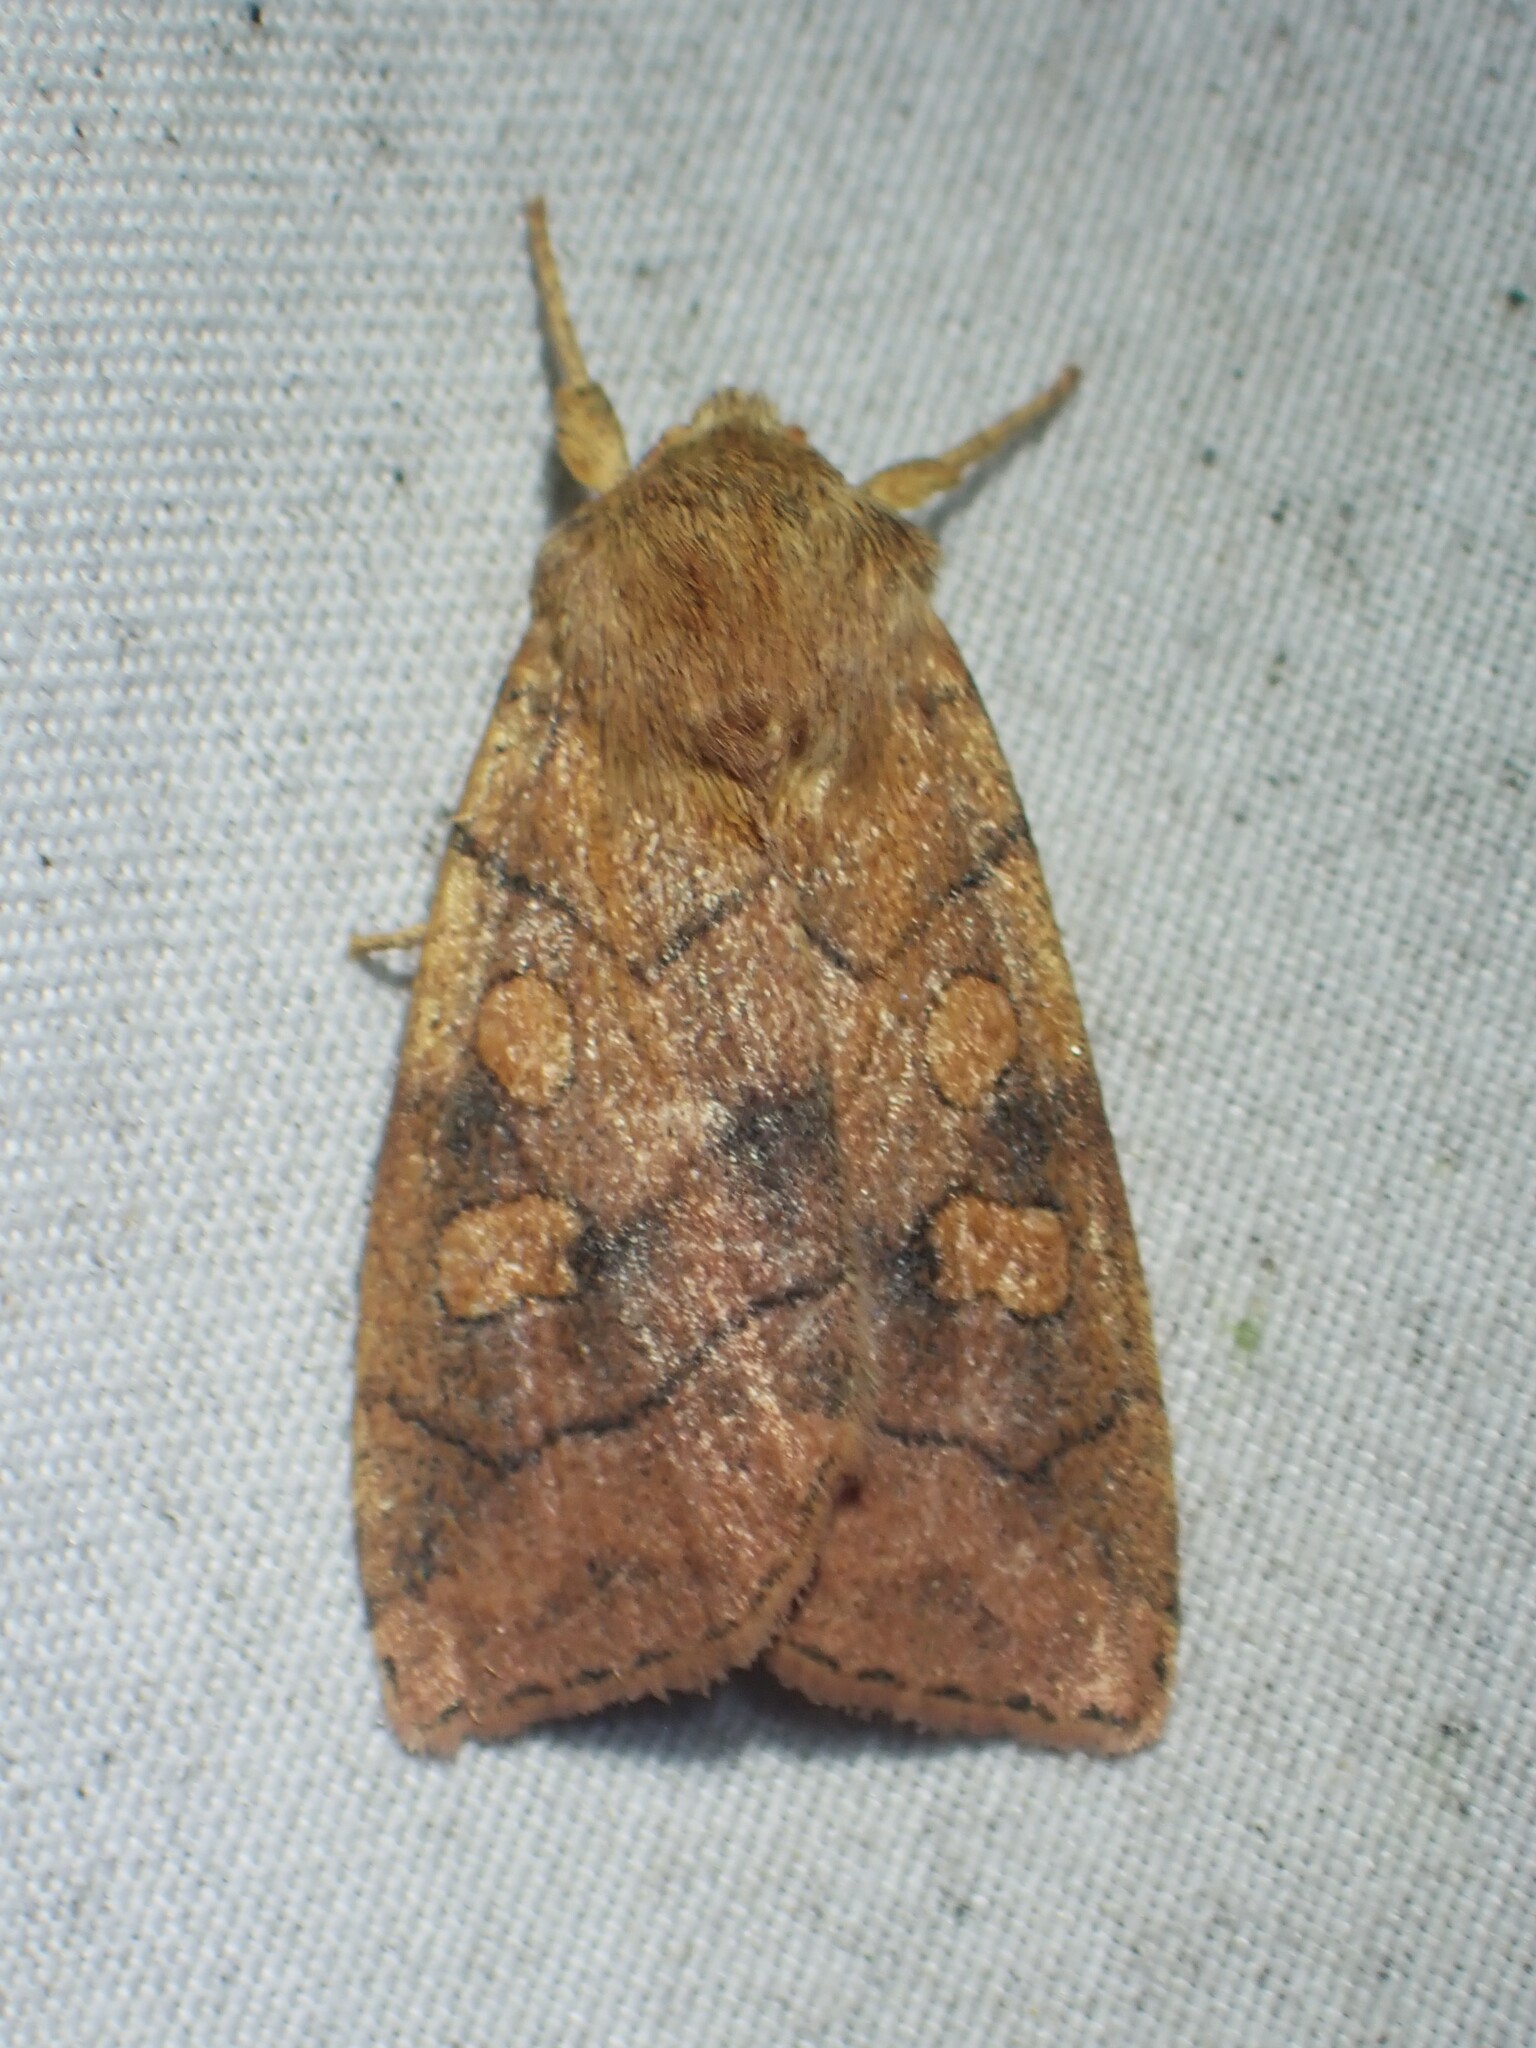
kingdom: Animalia
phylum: Arthropoda
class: Insecta
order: Lepidoptera
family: Noctuidae
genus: Enargia
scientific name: Enargia decolor
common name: Aspen twoleaf tier moth
